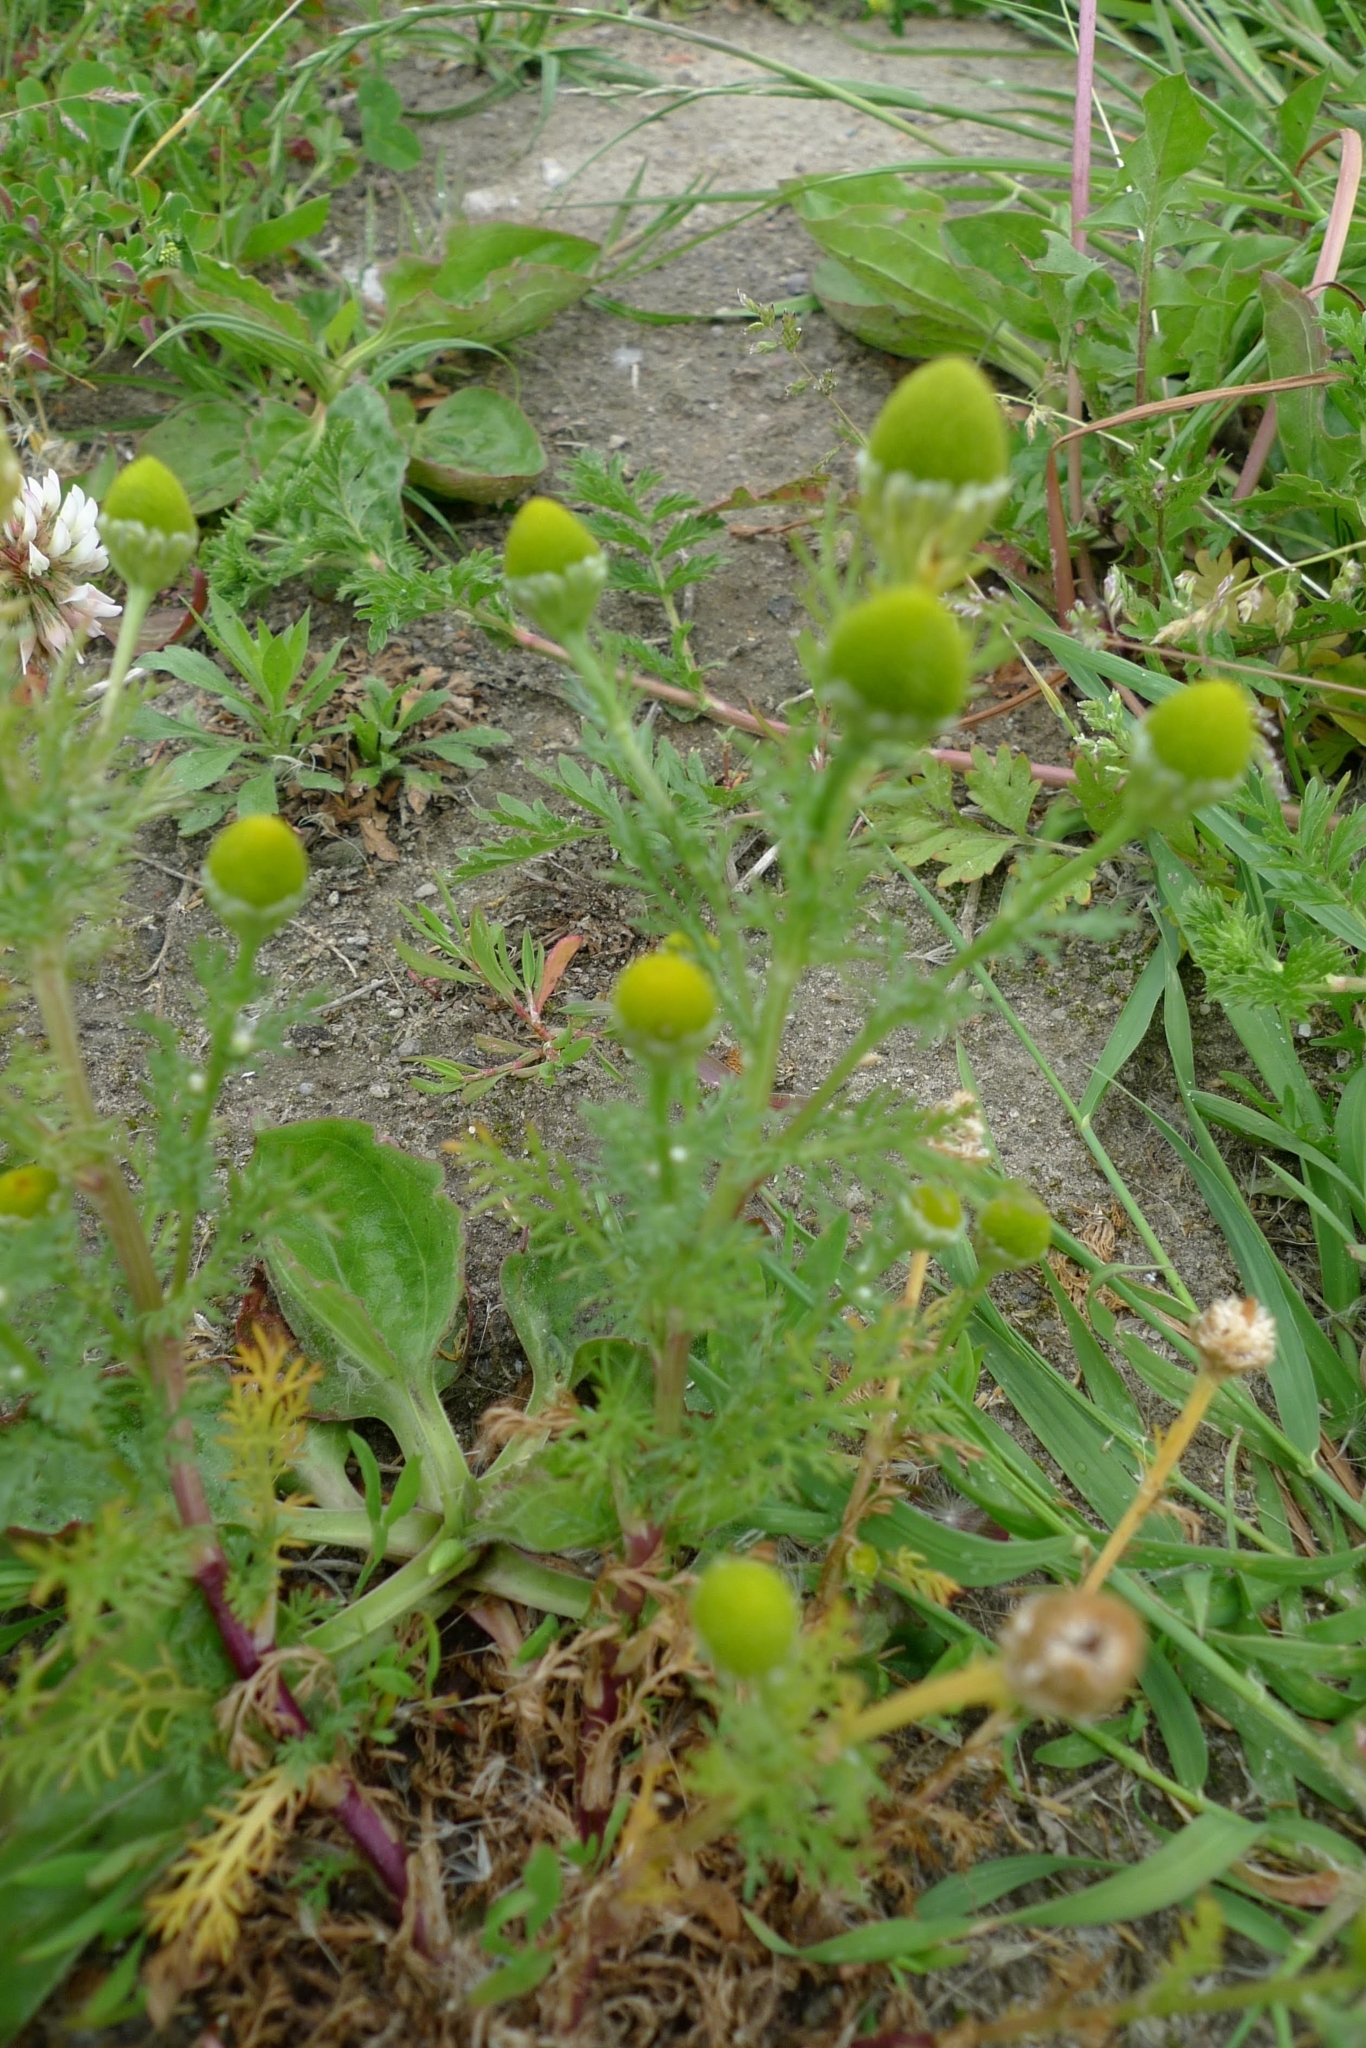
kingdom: Plantae
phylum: Tracheophyta
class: Magnoliopsida
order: Asterales
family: Asteraceae
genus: Matricaria
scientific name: Matricaria discoidea
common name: Disc mayweed
